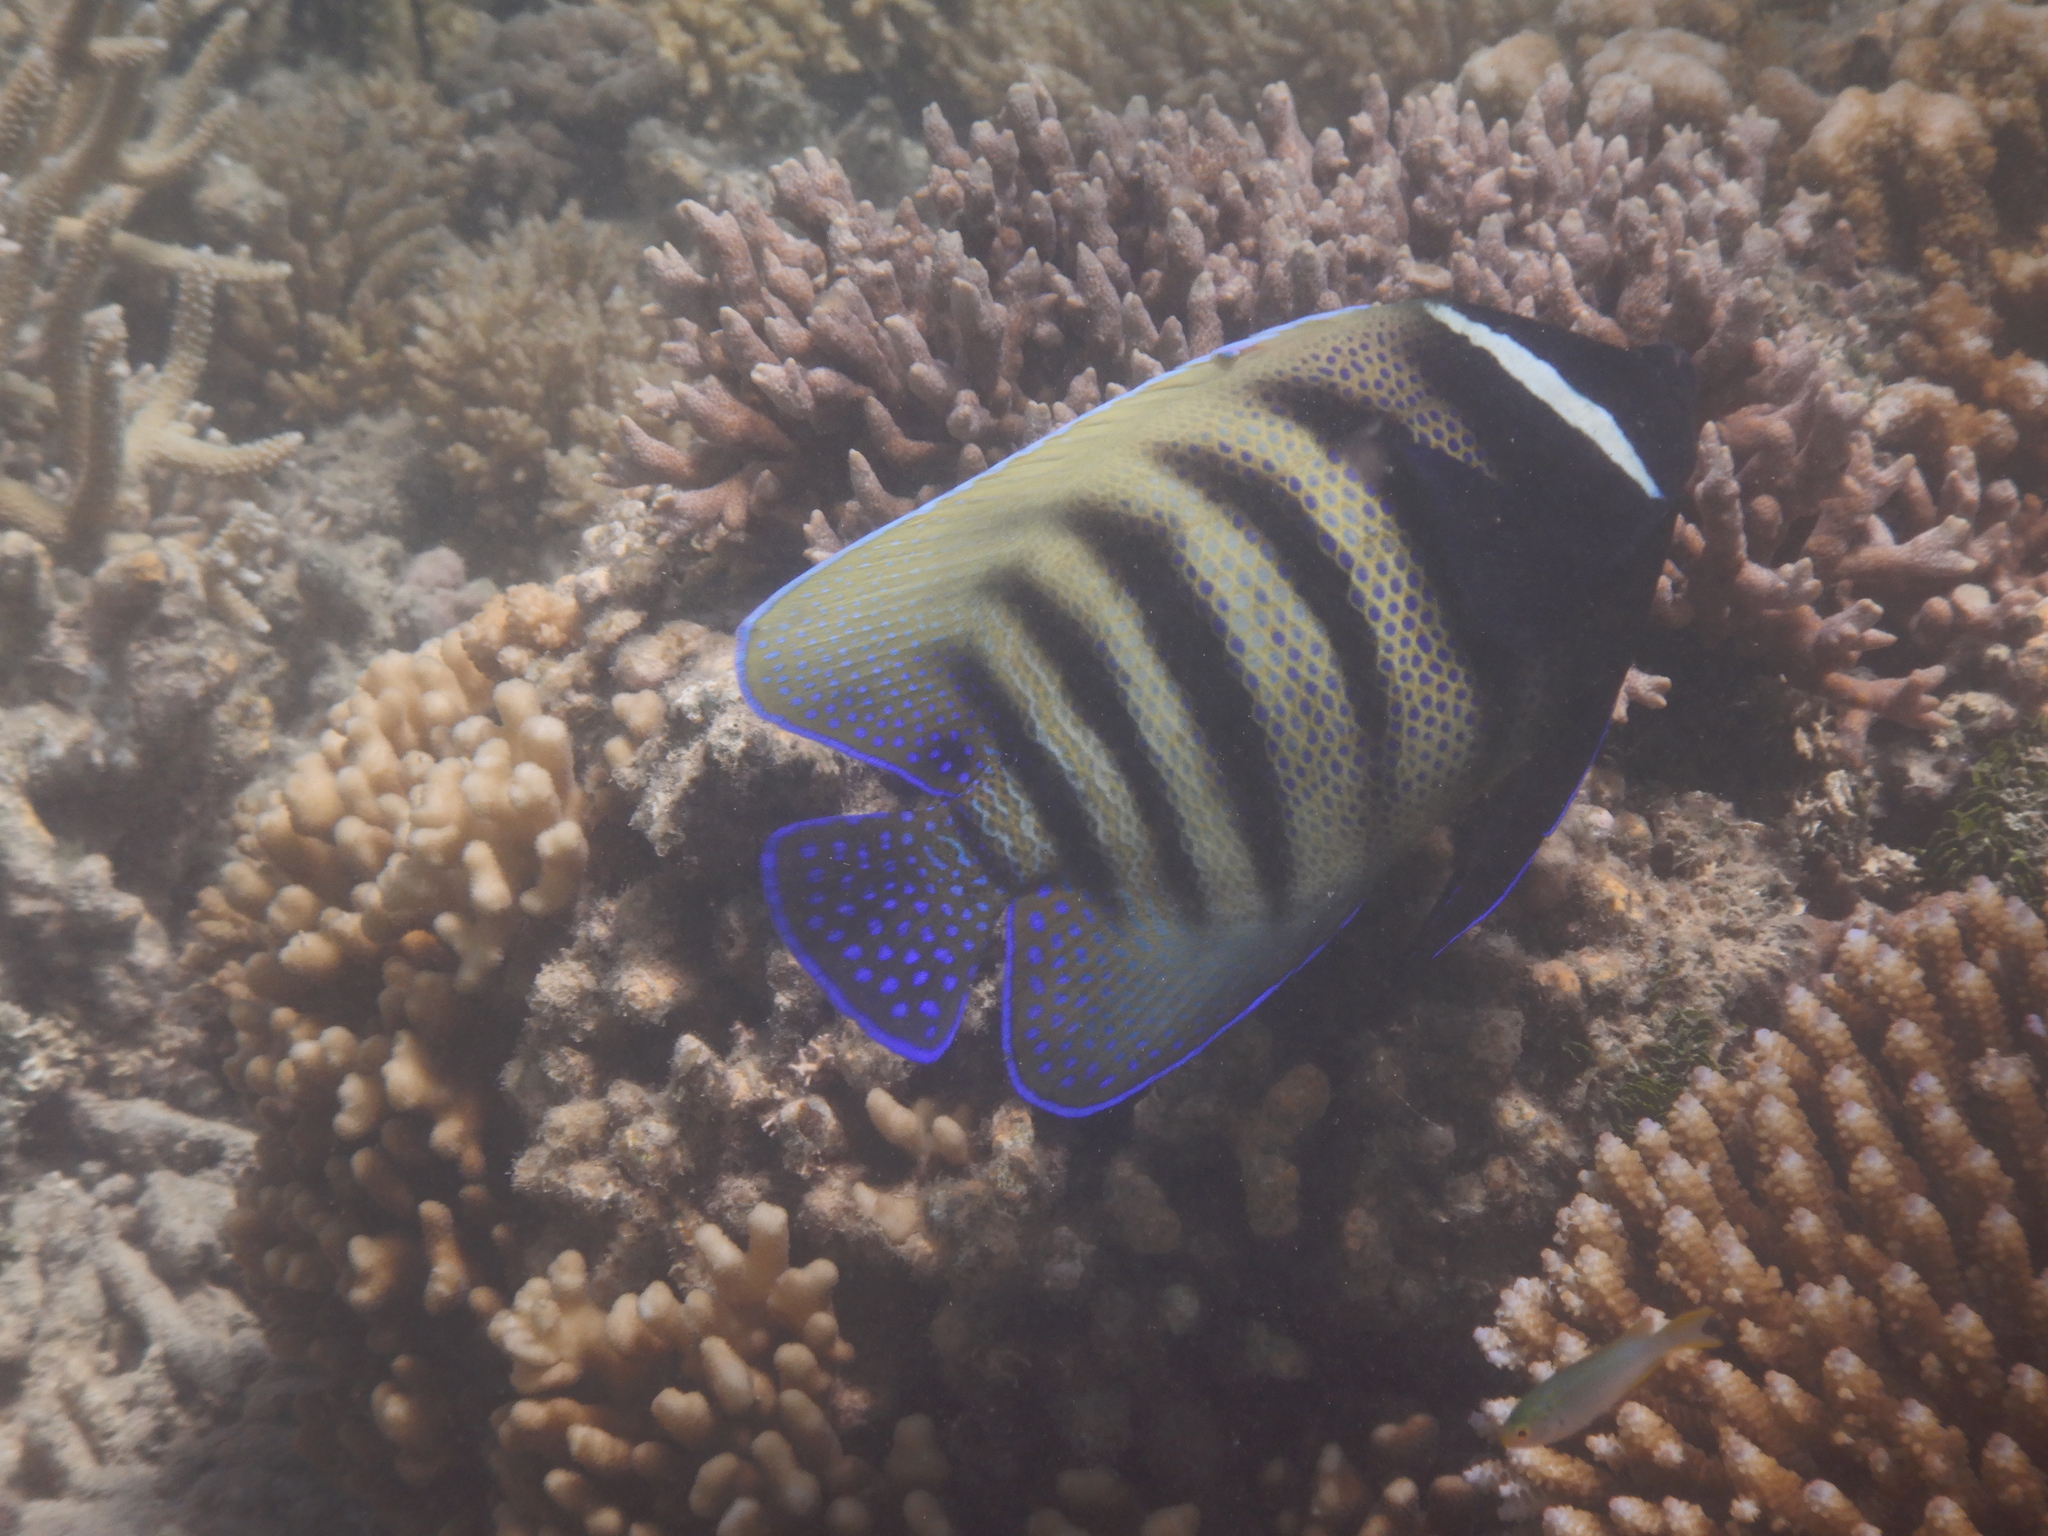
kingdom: Animalia
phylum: Chordata
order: Perciformes
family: Pomacanthidae
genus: Pomacanthus
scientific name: Pomacanthus sexstriatus
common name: Six-banded angelfish
